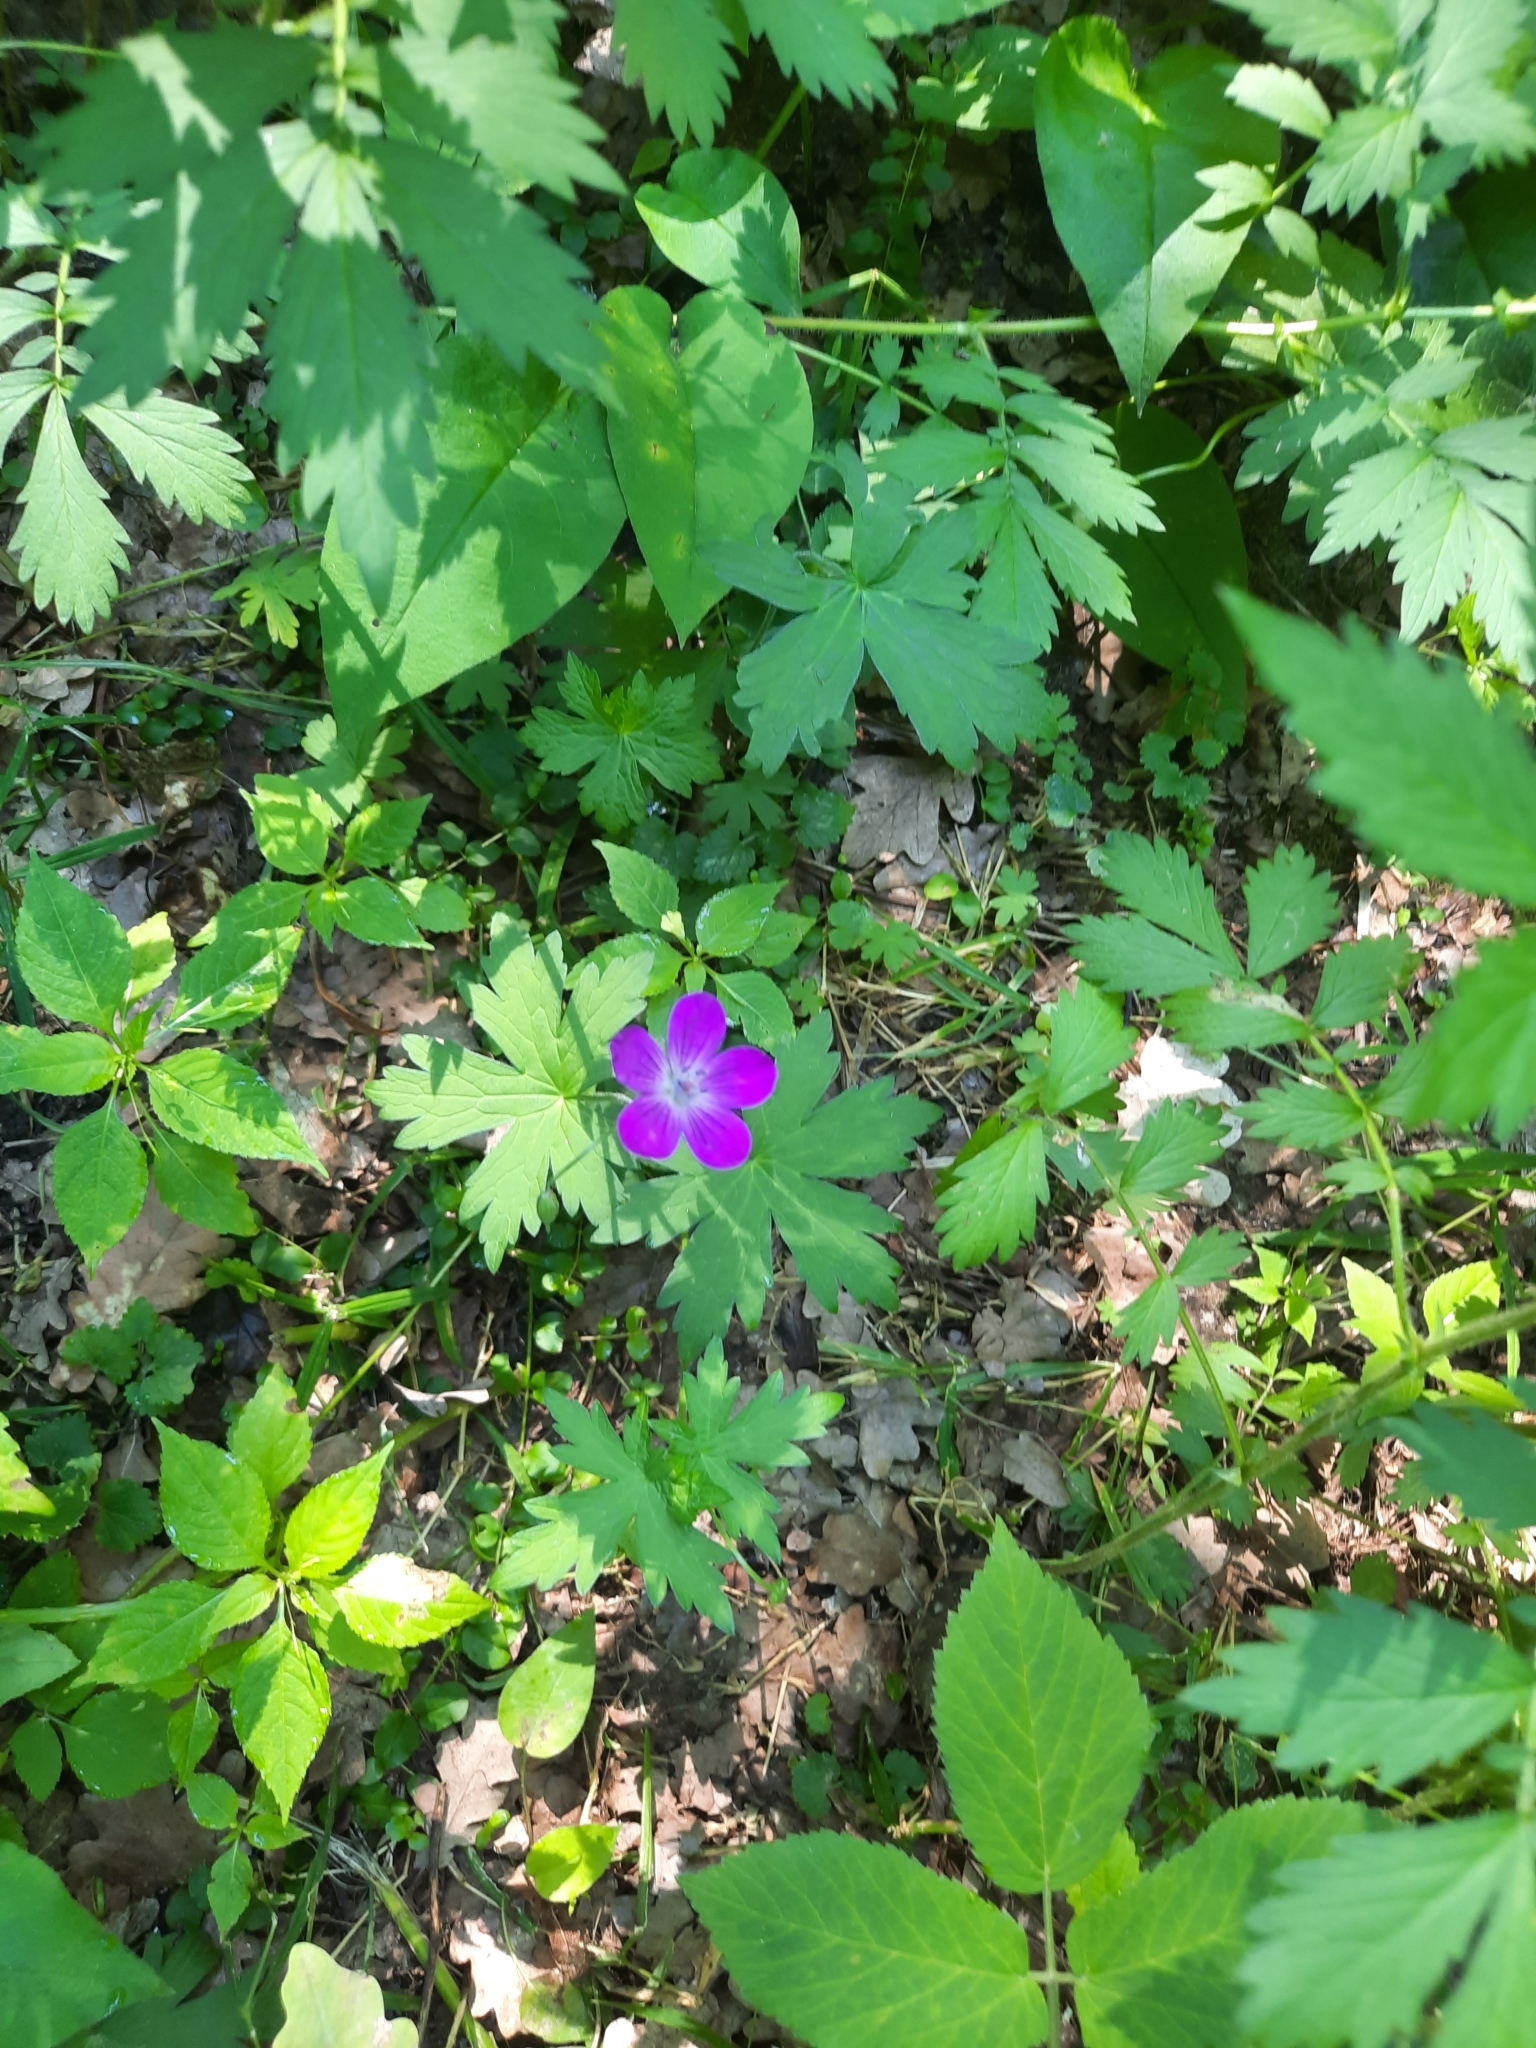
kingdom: Plantae
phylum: Tracheophyta
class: Magnoliopsida
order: Geraniales
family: Geraniaceae
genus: Geranium
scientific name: Geranium palustre
